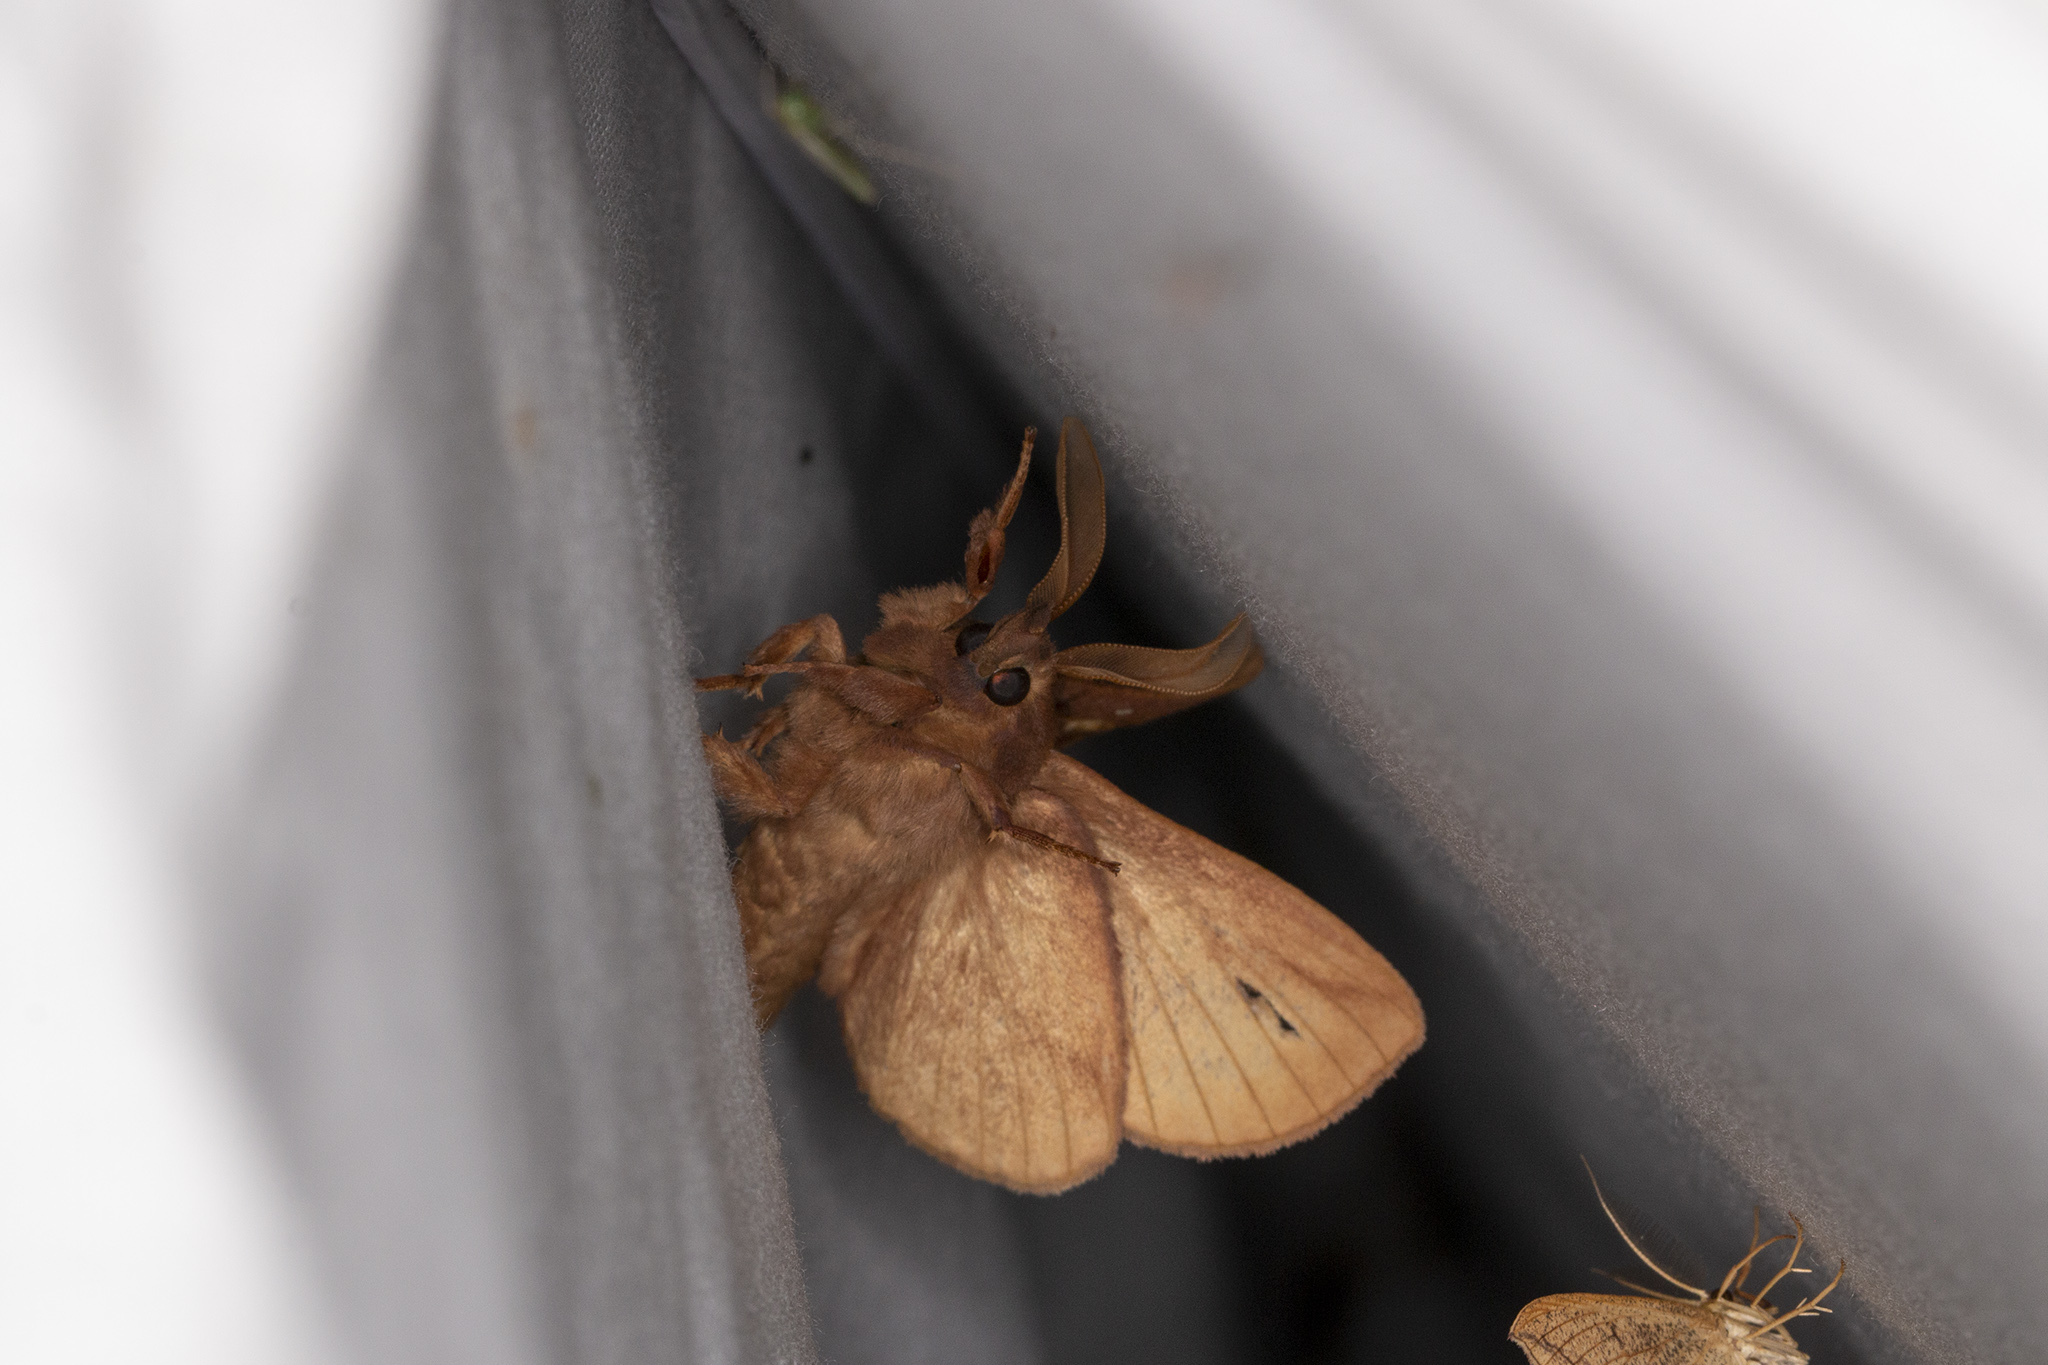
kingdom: Animalia
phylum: Arthropoda
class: Insecta
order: Lepidoptera
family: Lasiocampidae
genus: Euthrix
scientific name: Euthrix potatoria
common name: Drinker
